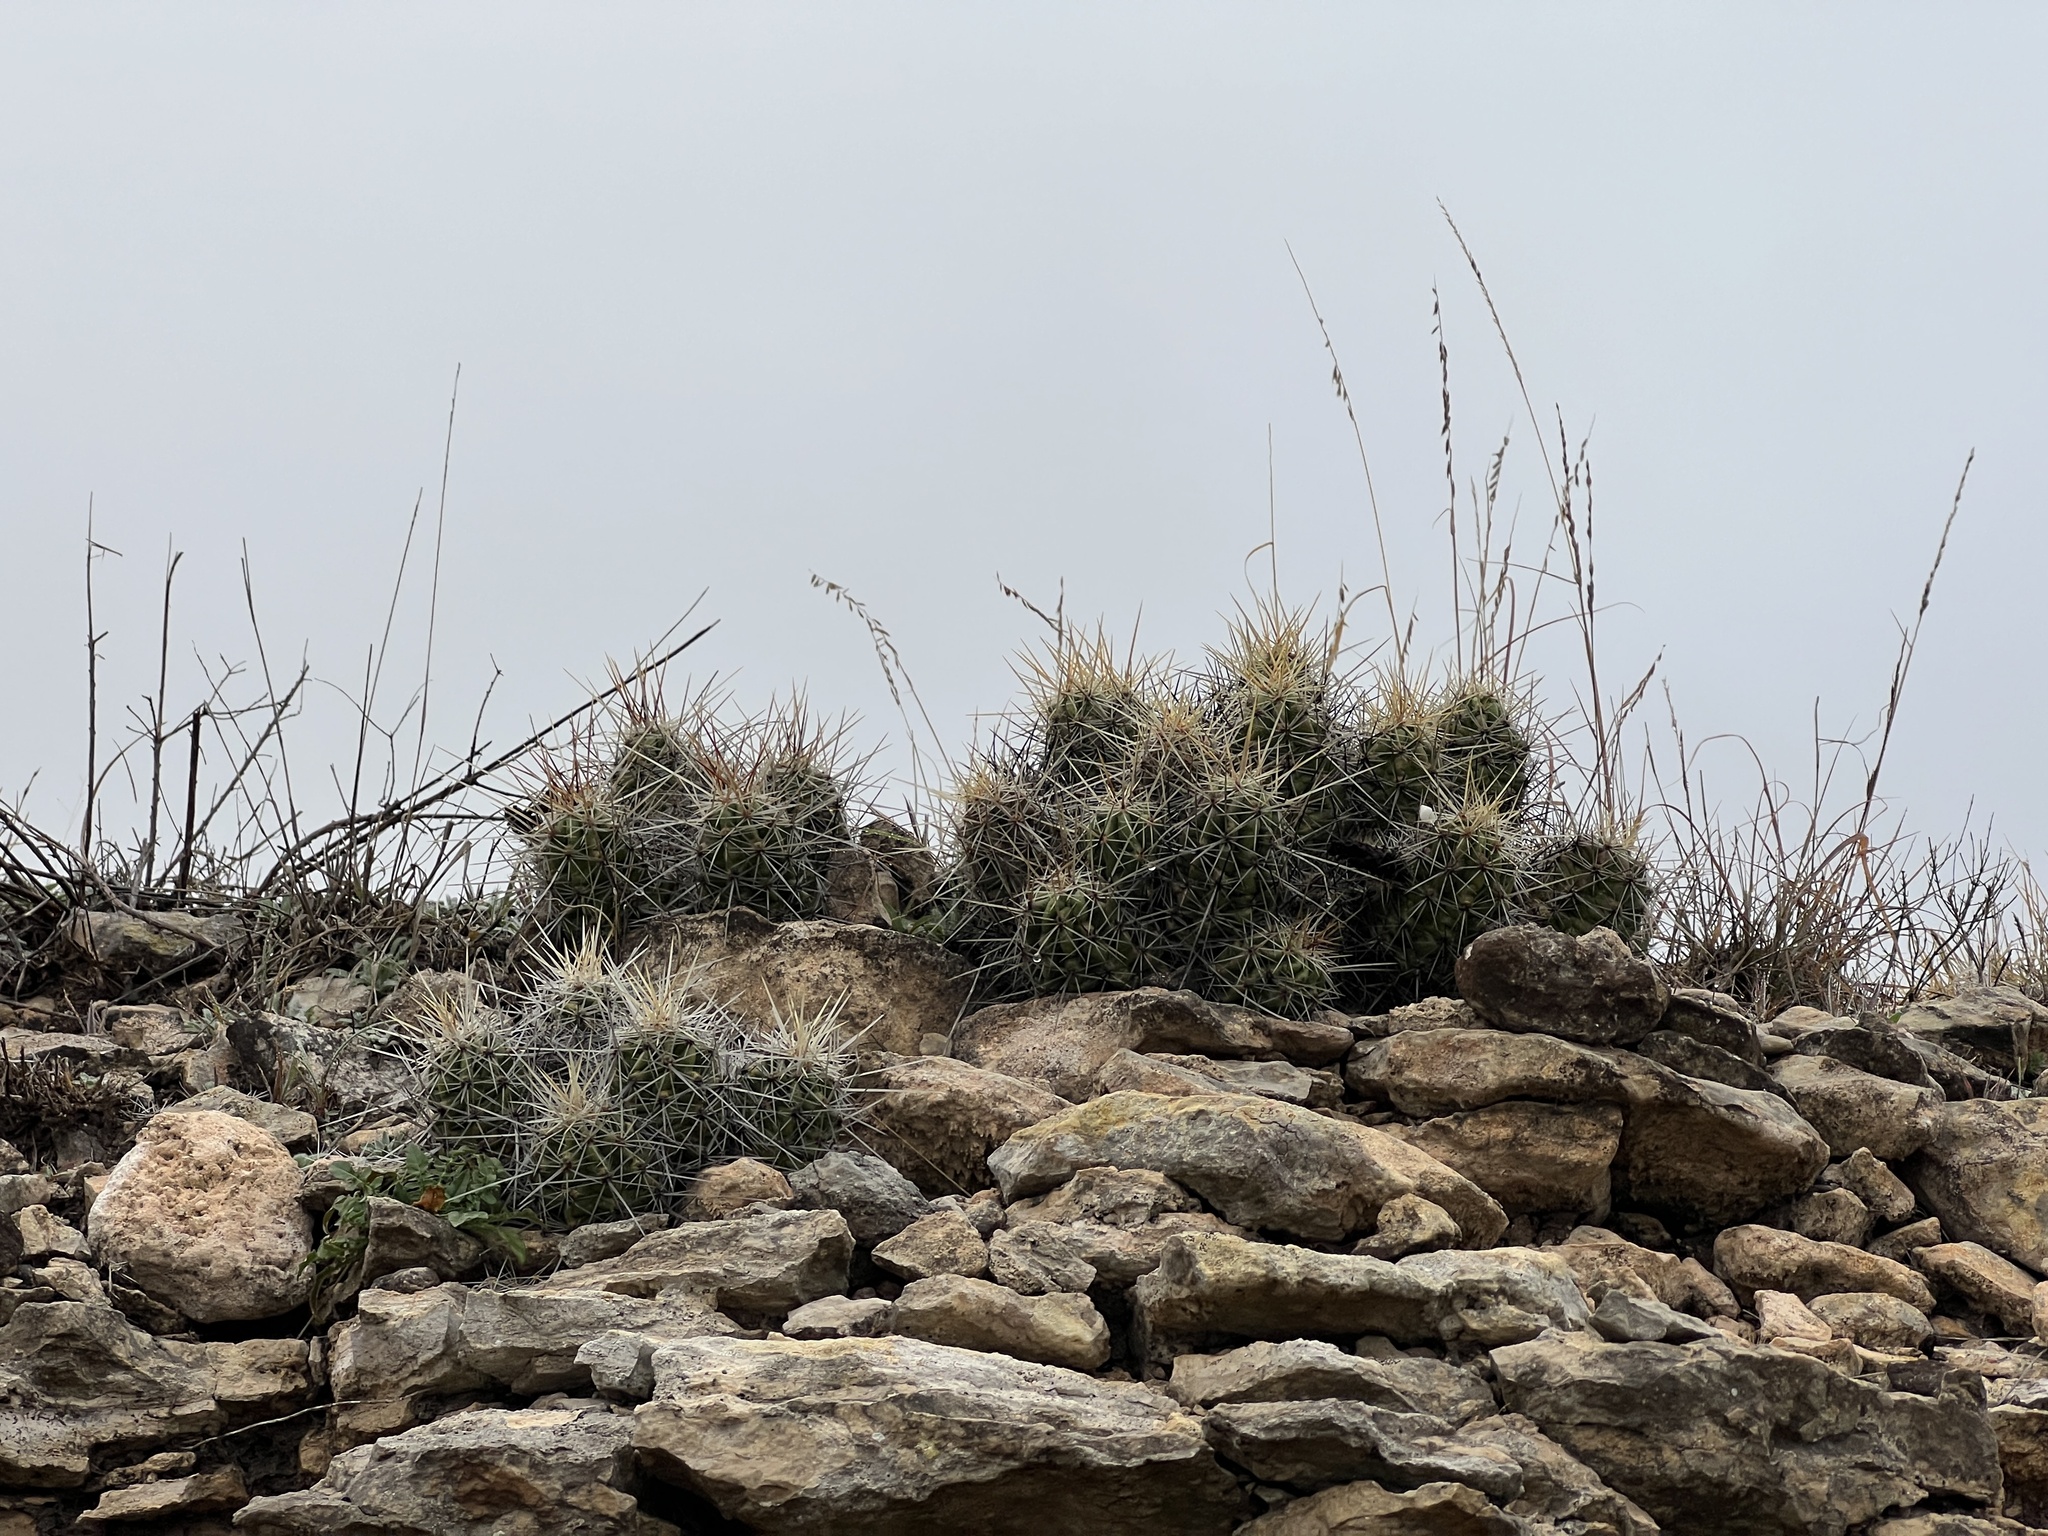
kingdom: Plantae
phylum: Tracheophyta
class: Magnoliopsida
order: Caryophyllales
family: Cactaceae
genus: Echinocereus
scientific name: Echinocereus enneacanthus
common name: Pitaya
